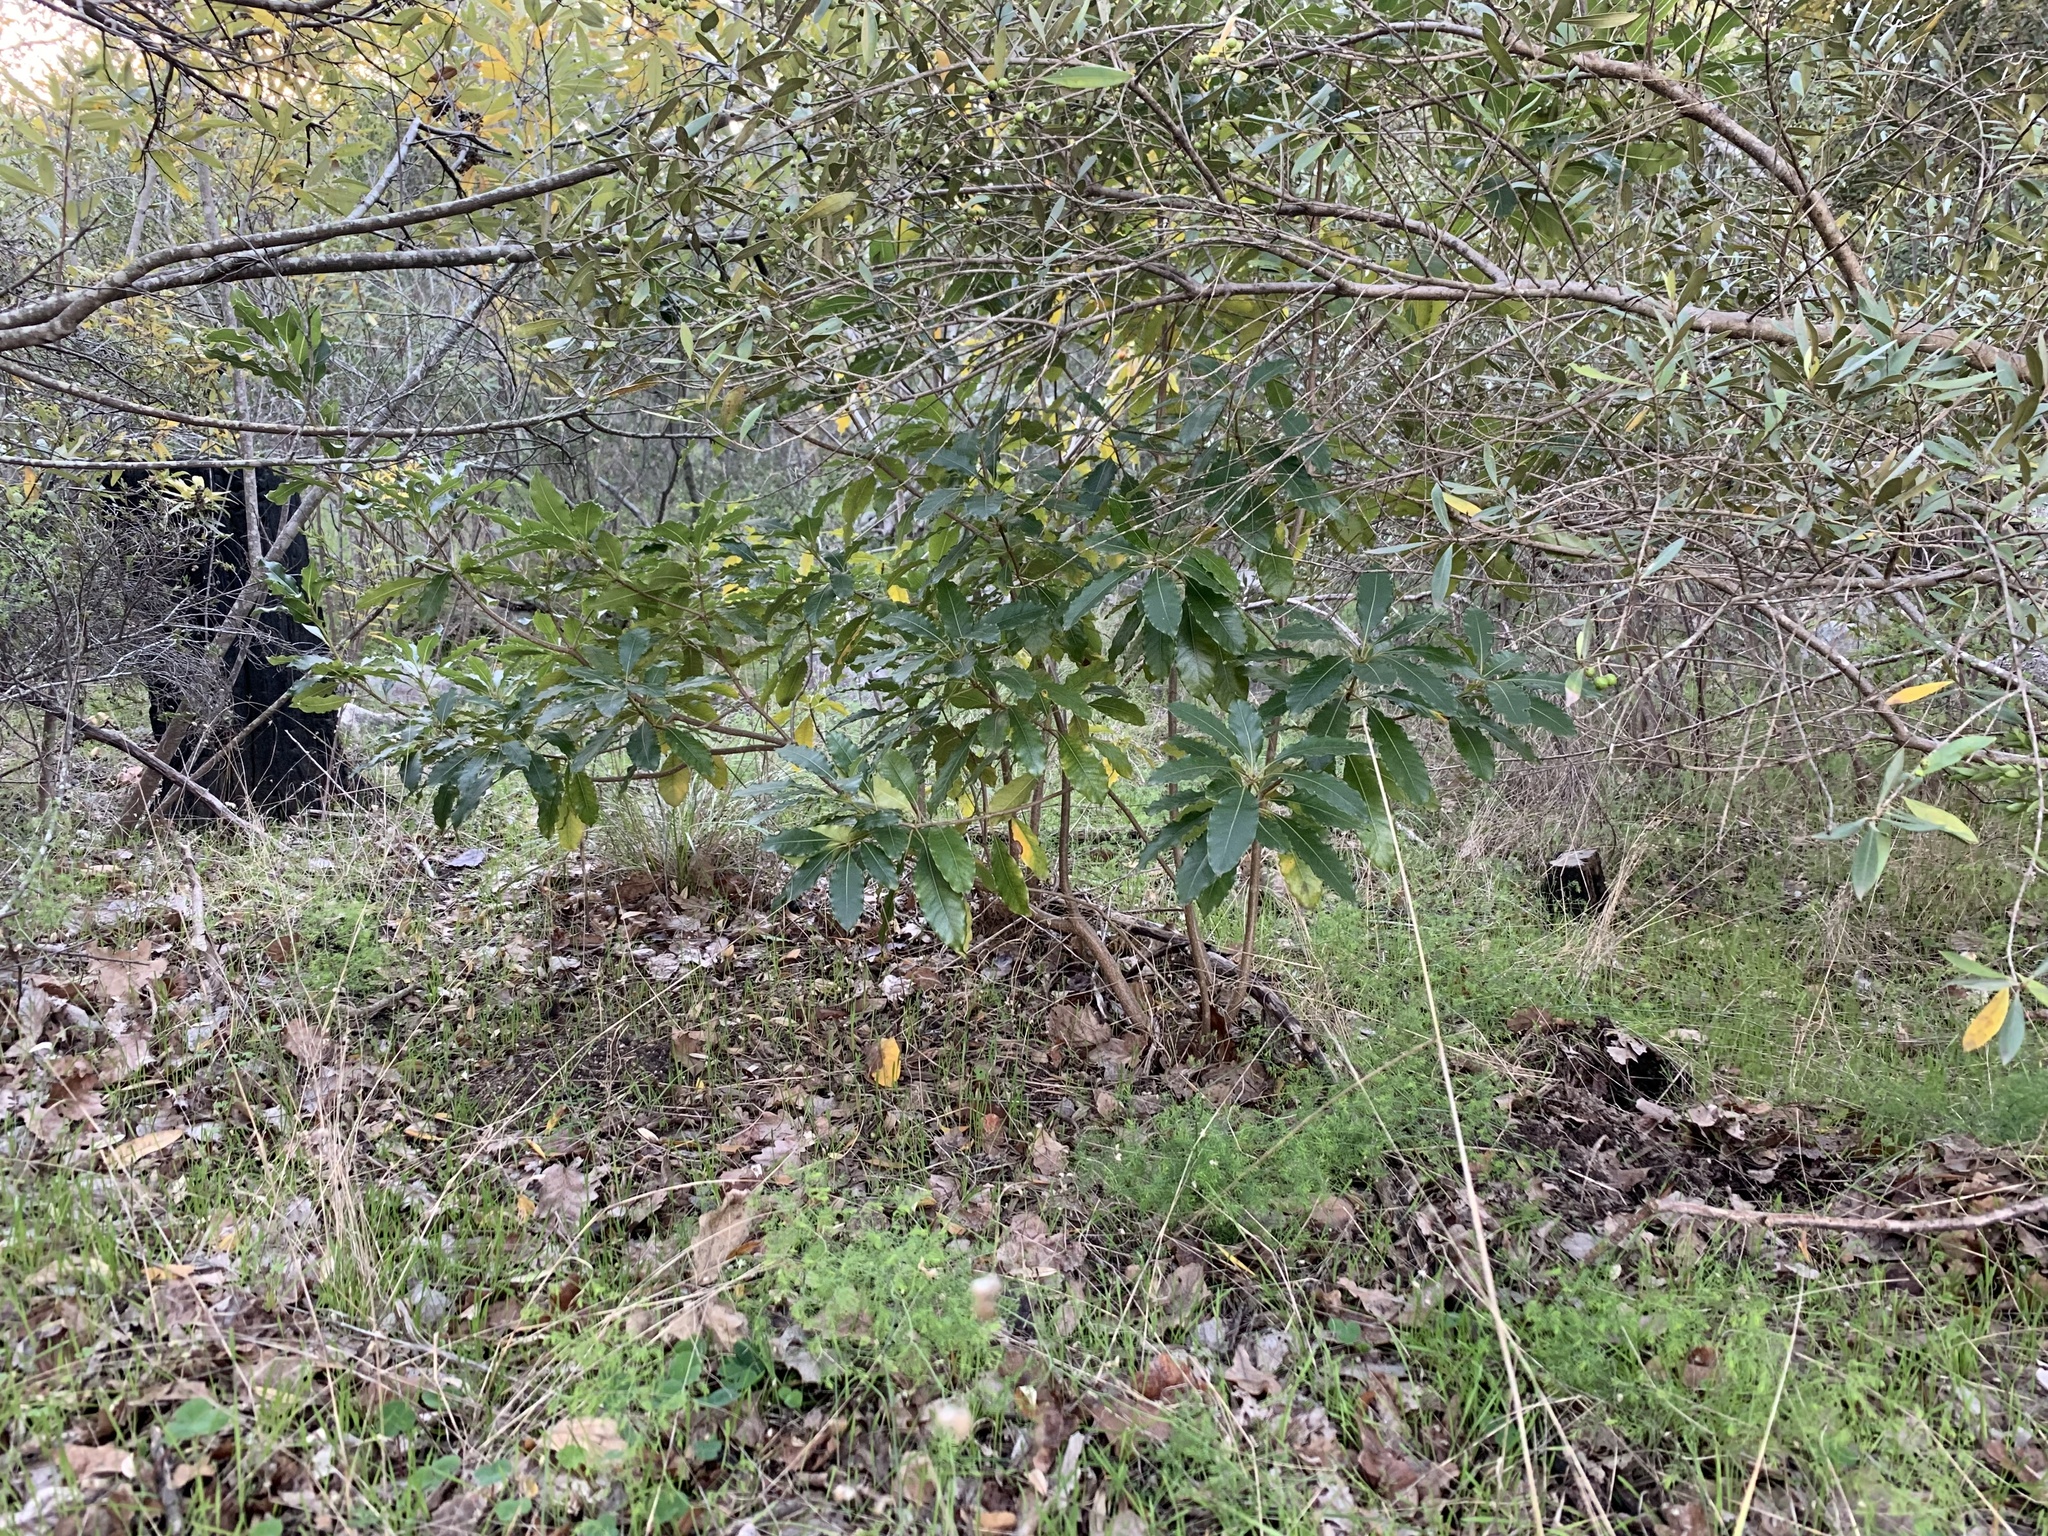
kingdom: Plantae
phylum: Tracheophyta
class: Magnoliopsida
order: Apiales
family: Pittosporaceae
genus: Pittosporum
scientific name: Pittosporum undulatum
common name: Australian cheesewood
